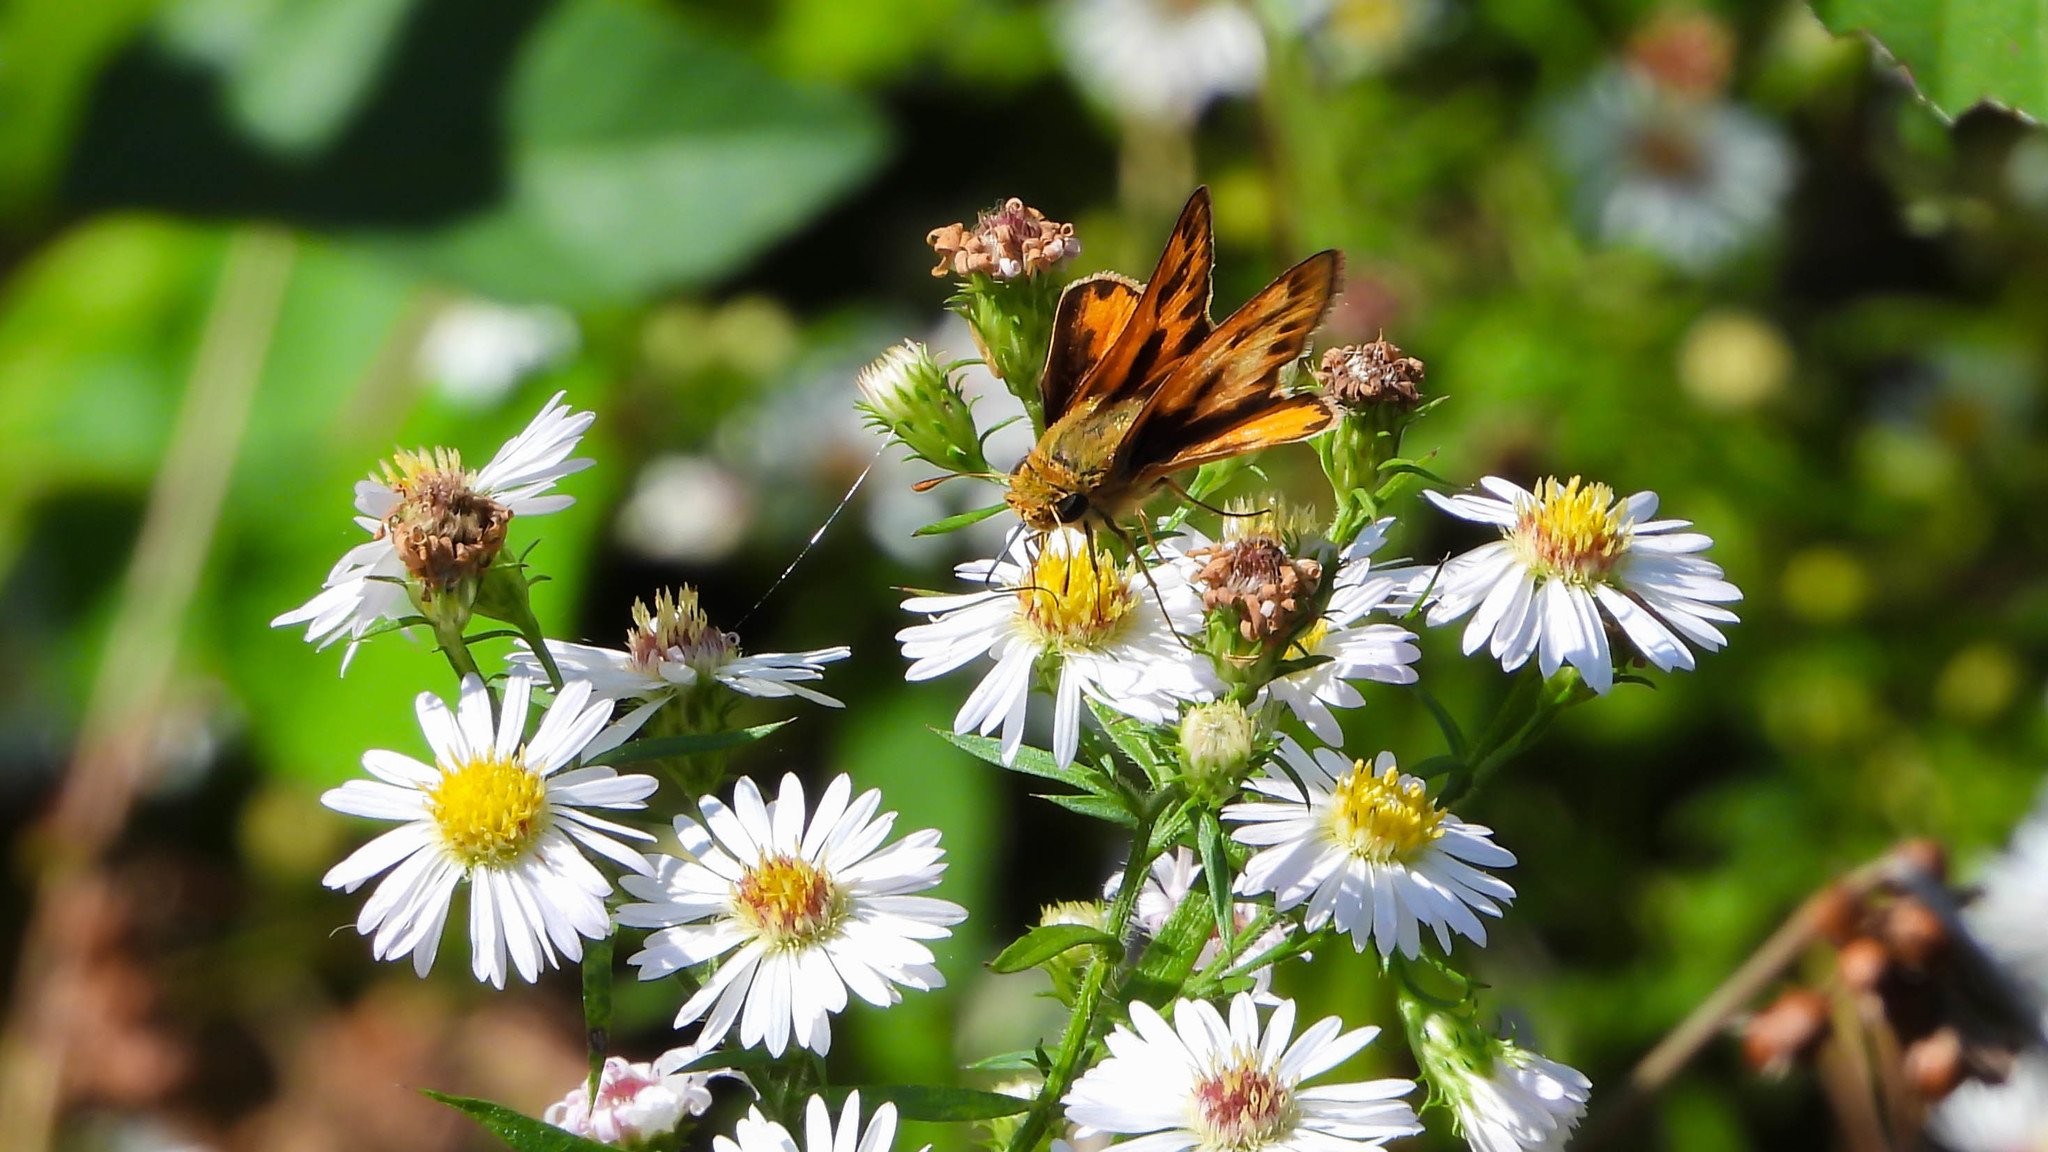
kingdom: Animalia
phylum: Arthropoda
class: Insecta
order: Lepidoptera
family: Hesperiidae
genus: Hylephila
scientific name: Hylephila phyleus
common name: Fiery skipper
